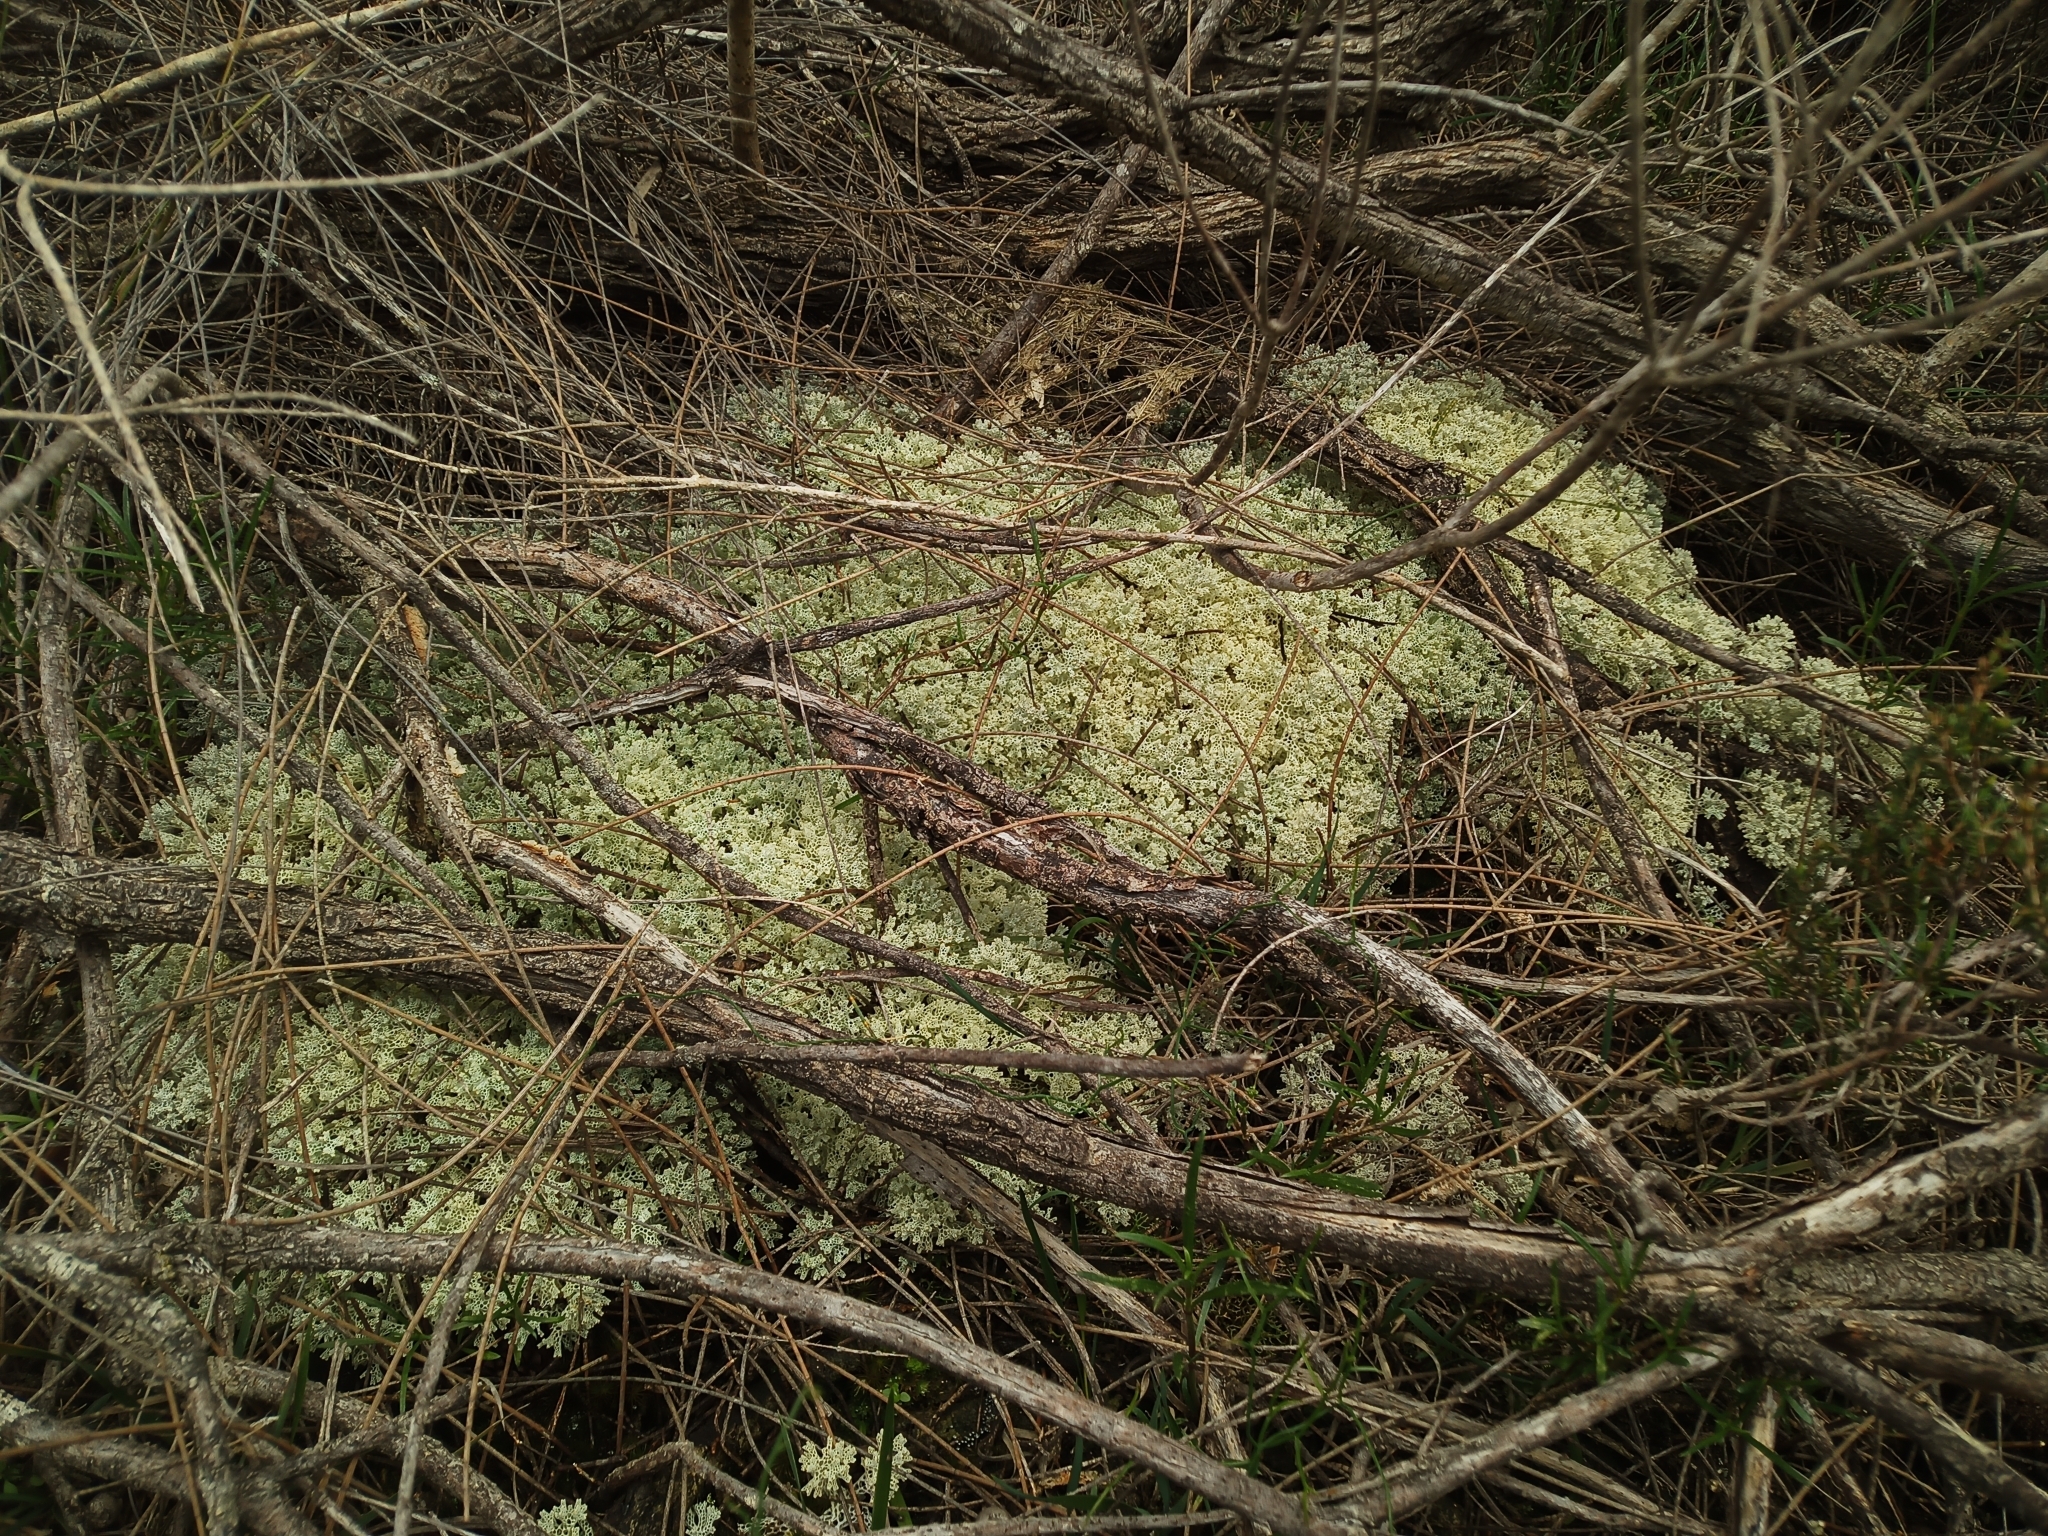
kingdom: Fungi
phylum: Ascomycota
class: Lecanoromycetes
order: Lecanorales
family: Cladoniaceae
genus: Pulchrocladia
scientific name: Pulchrocladia ferdinandii
